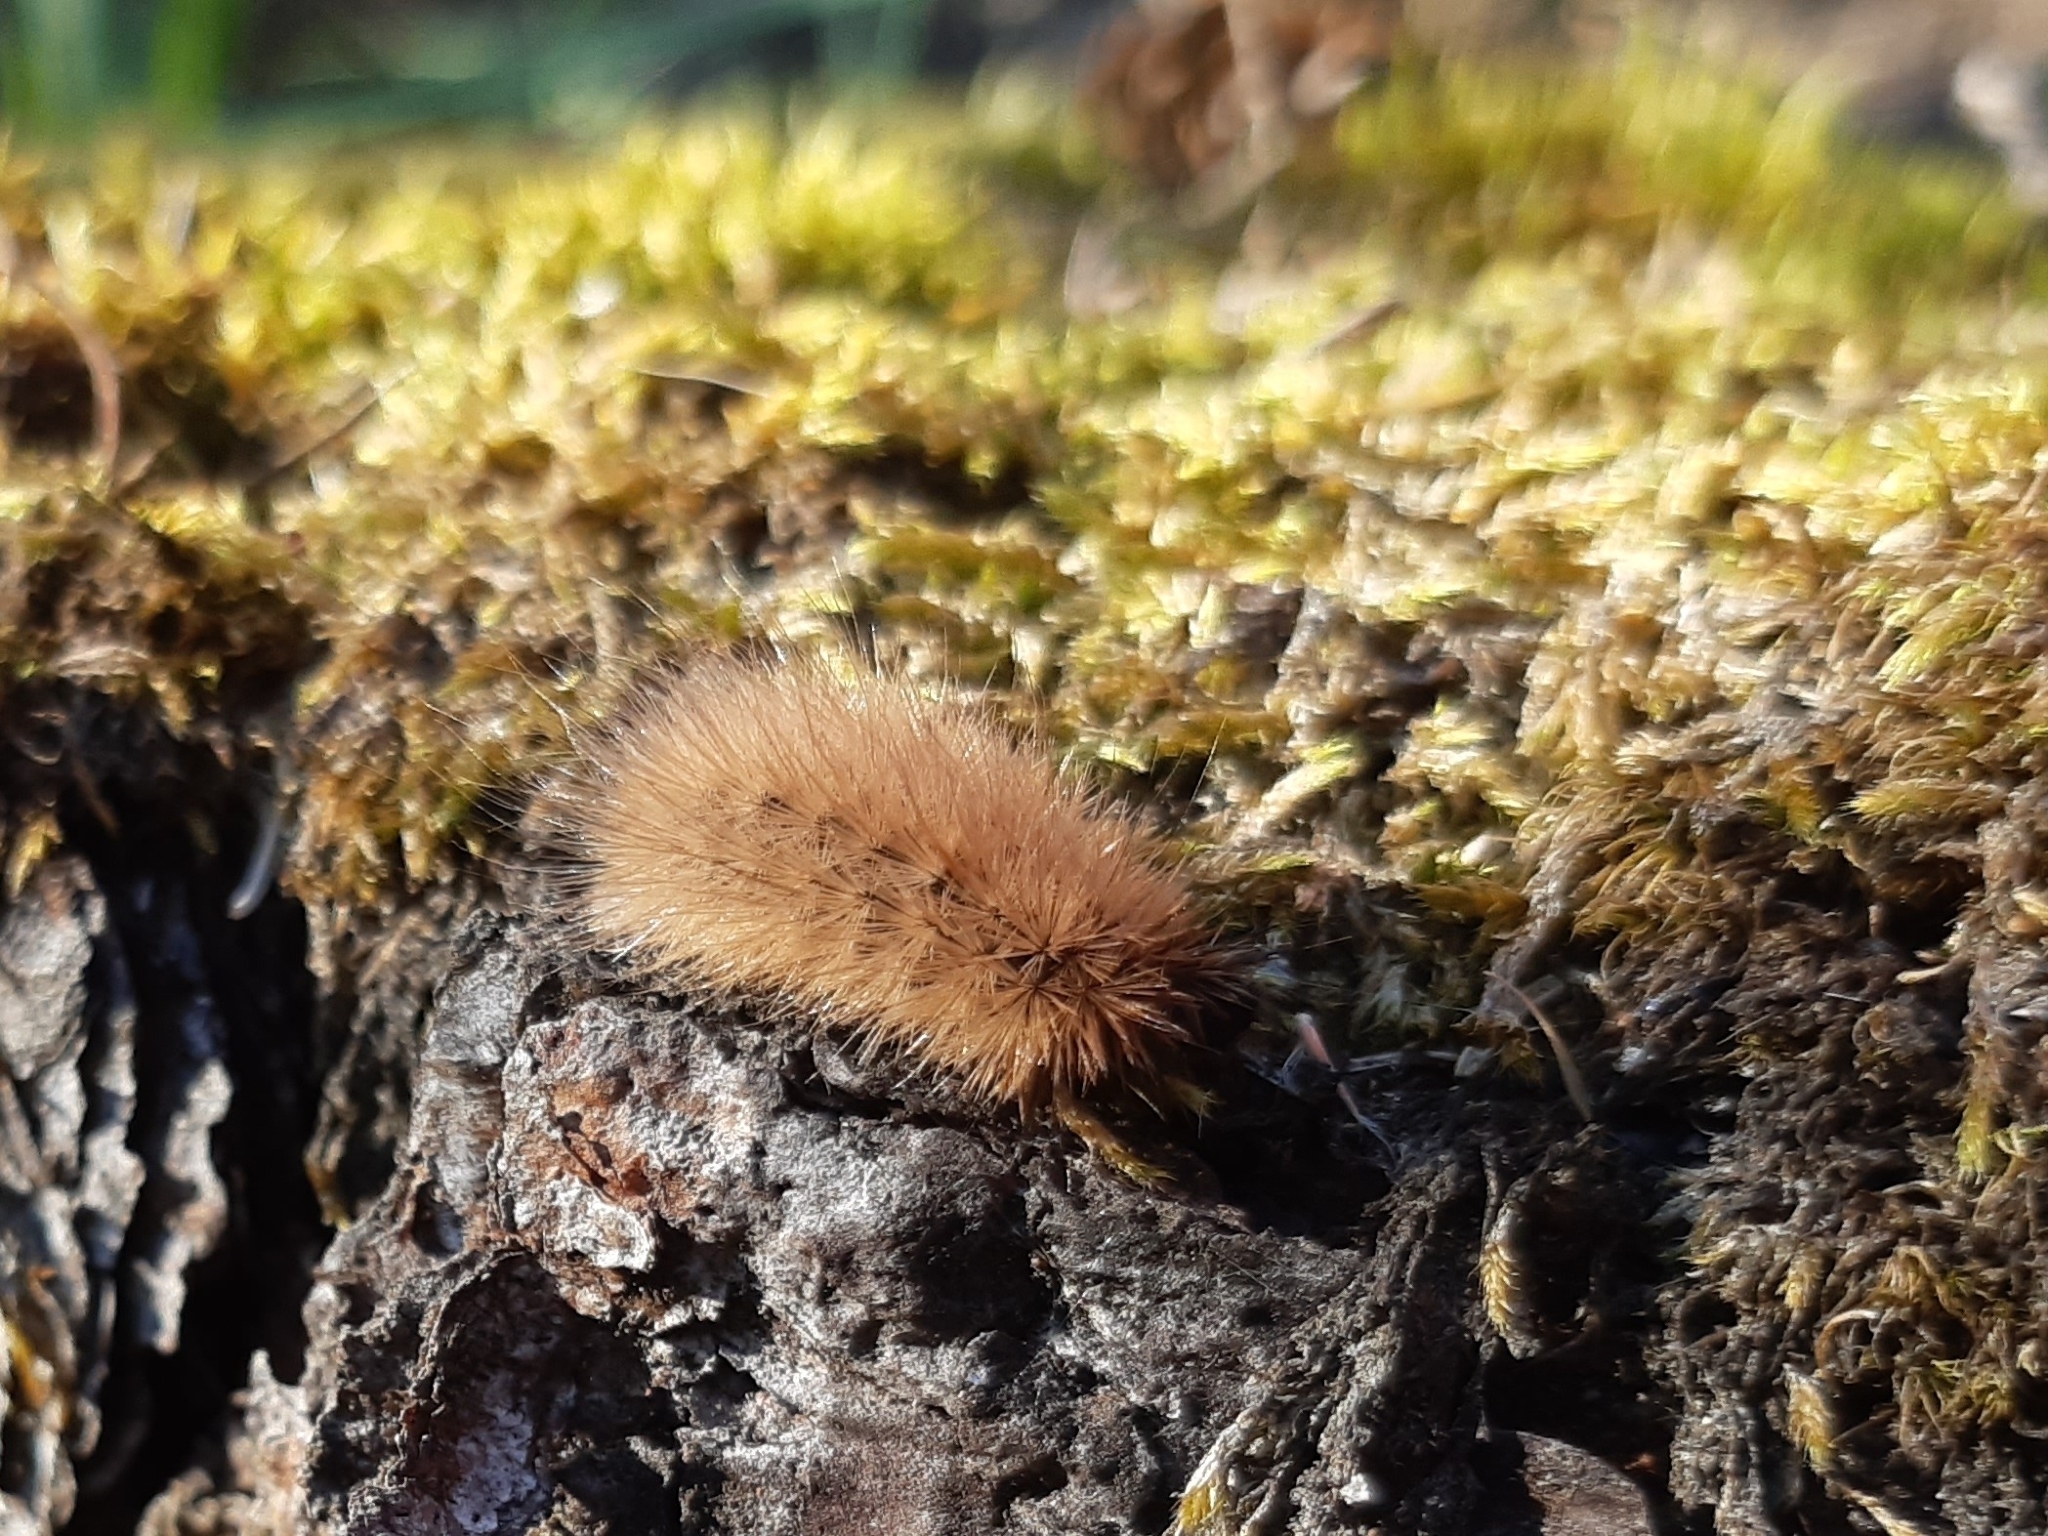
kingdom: Animalia
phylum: Arthropoda
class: Insecta
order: Lepidoptera
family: Erebidae
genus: Phragmatobia
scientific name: Phragmatobia fuliginosa
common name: Ruby tiger
